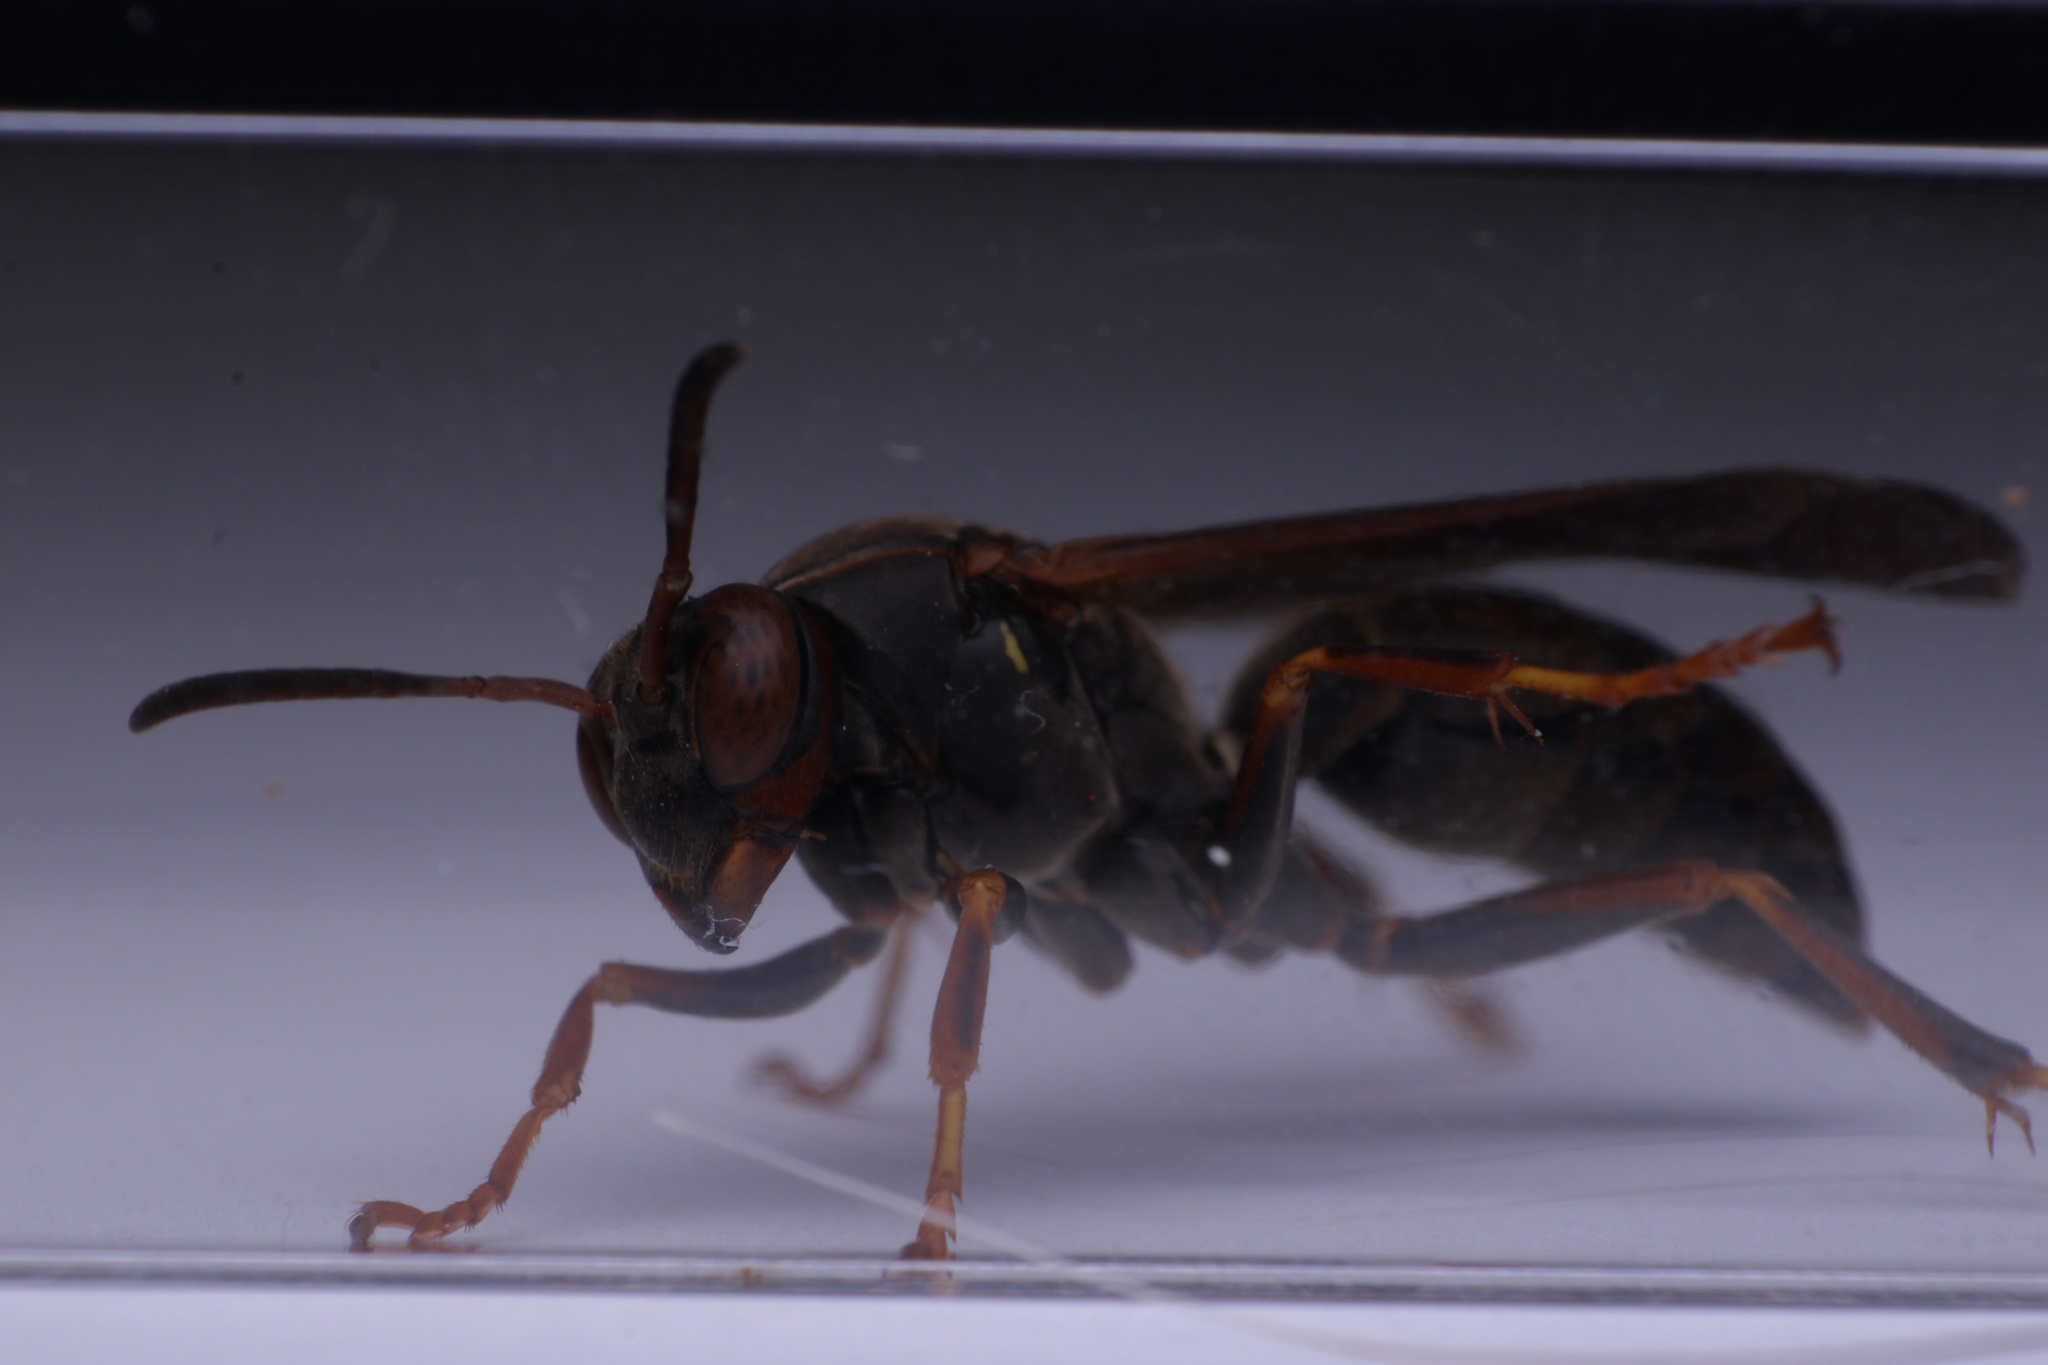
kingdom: Animalia
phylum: Arthropoda
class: Insecta
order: Hymenoptera
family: Eumenidae
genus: Polistes
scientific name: Polistes fuscatus
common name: Dark paper wasp
